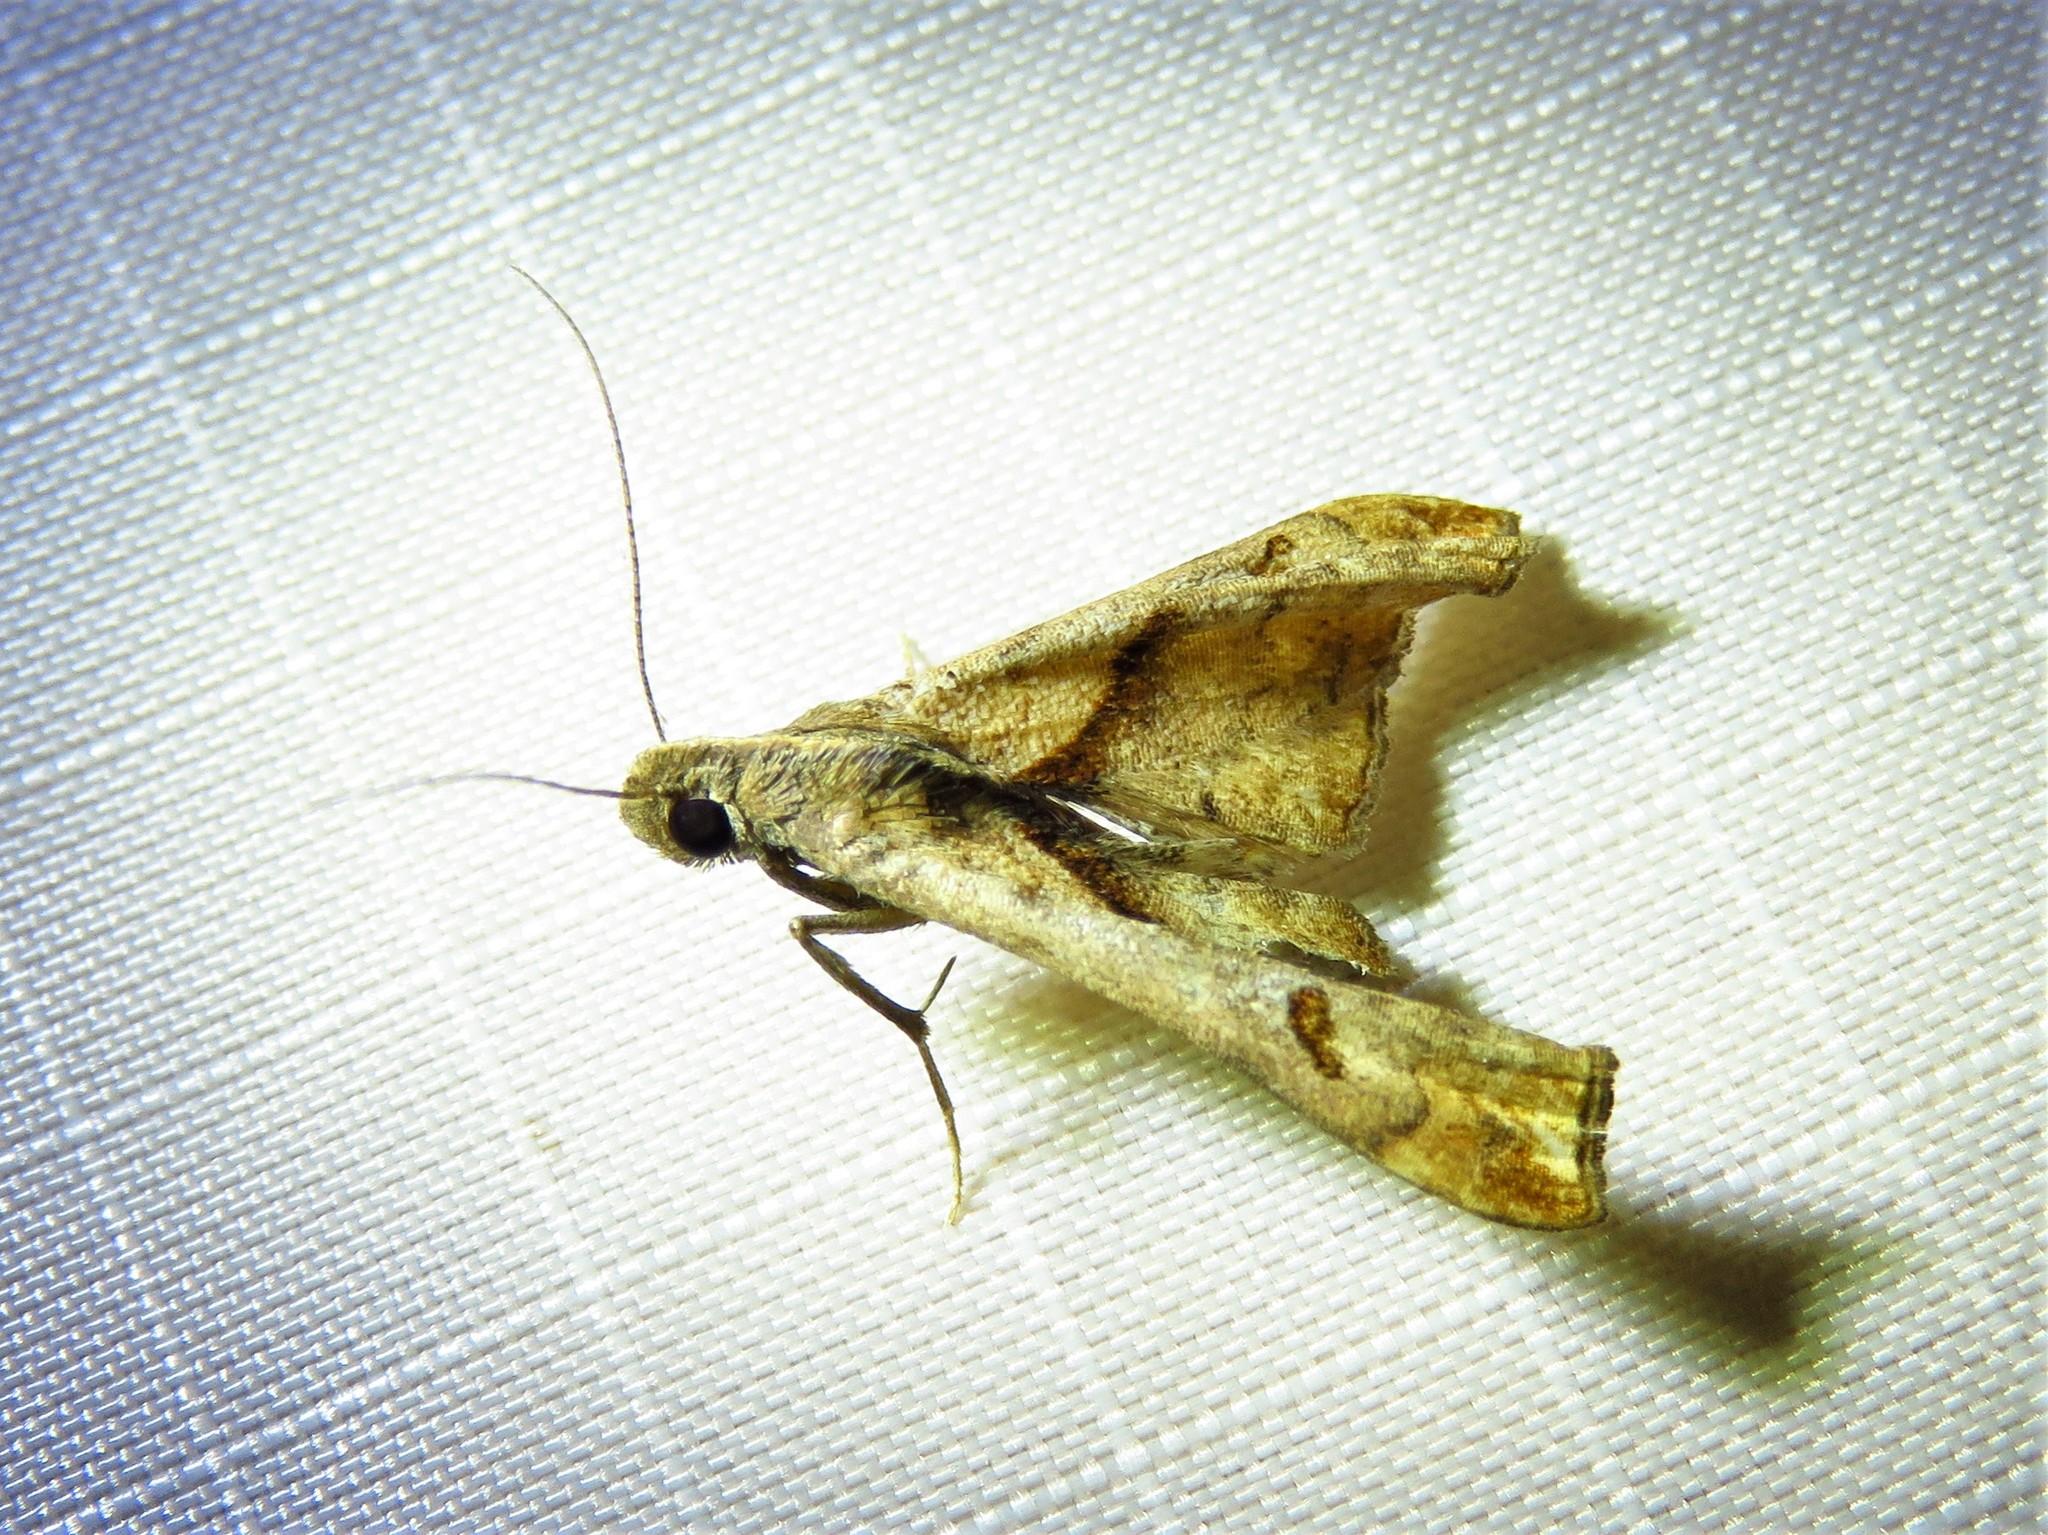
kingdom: Animalia
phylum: Arthropoda
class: Insecta
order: Lepidoptera
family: Erebidae
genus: Palthis
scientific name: Palthis angulalis
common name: Dark-spotted palthis moth
